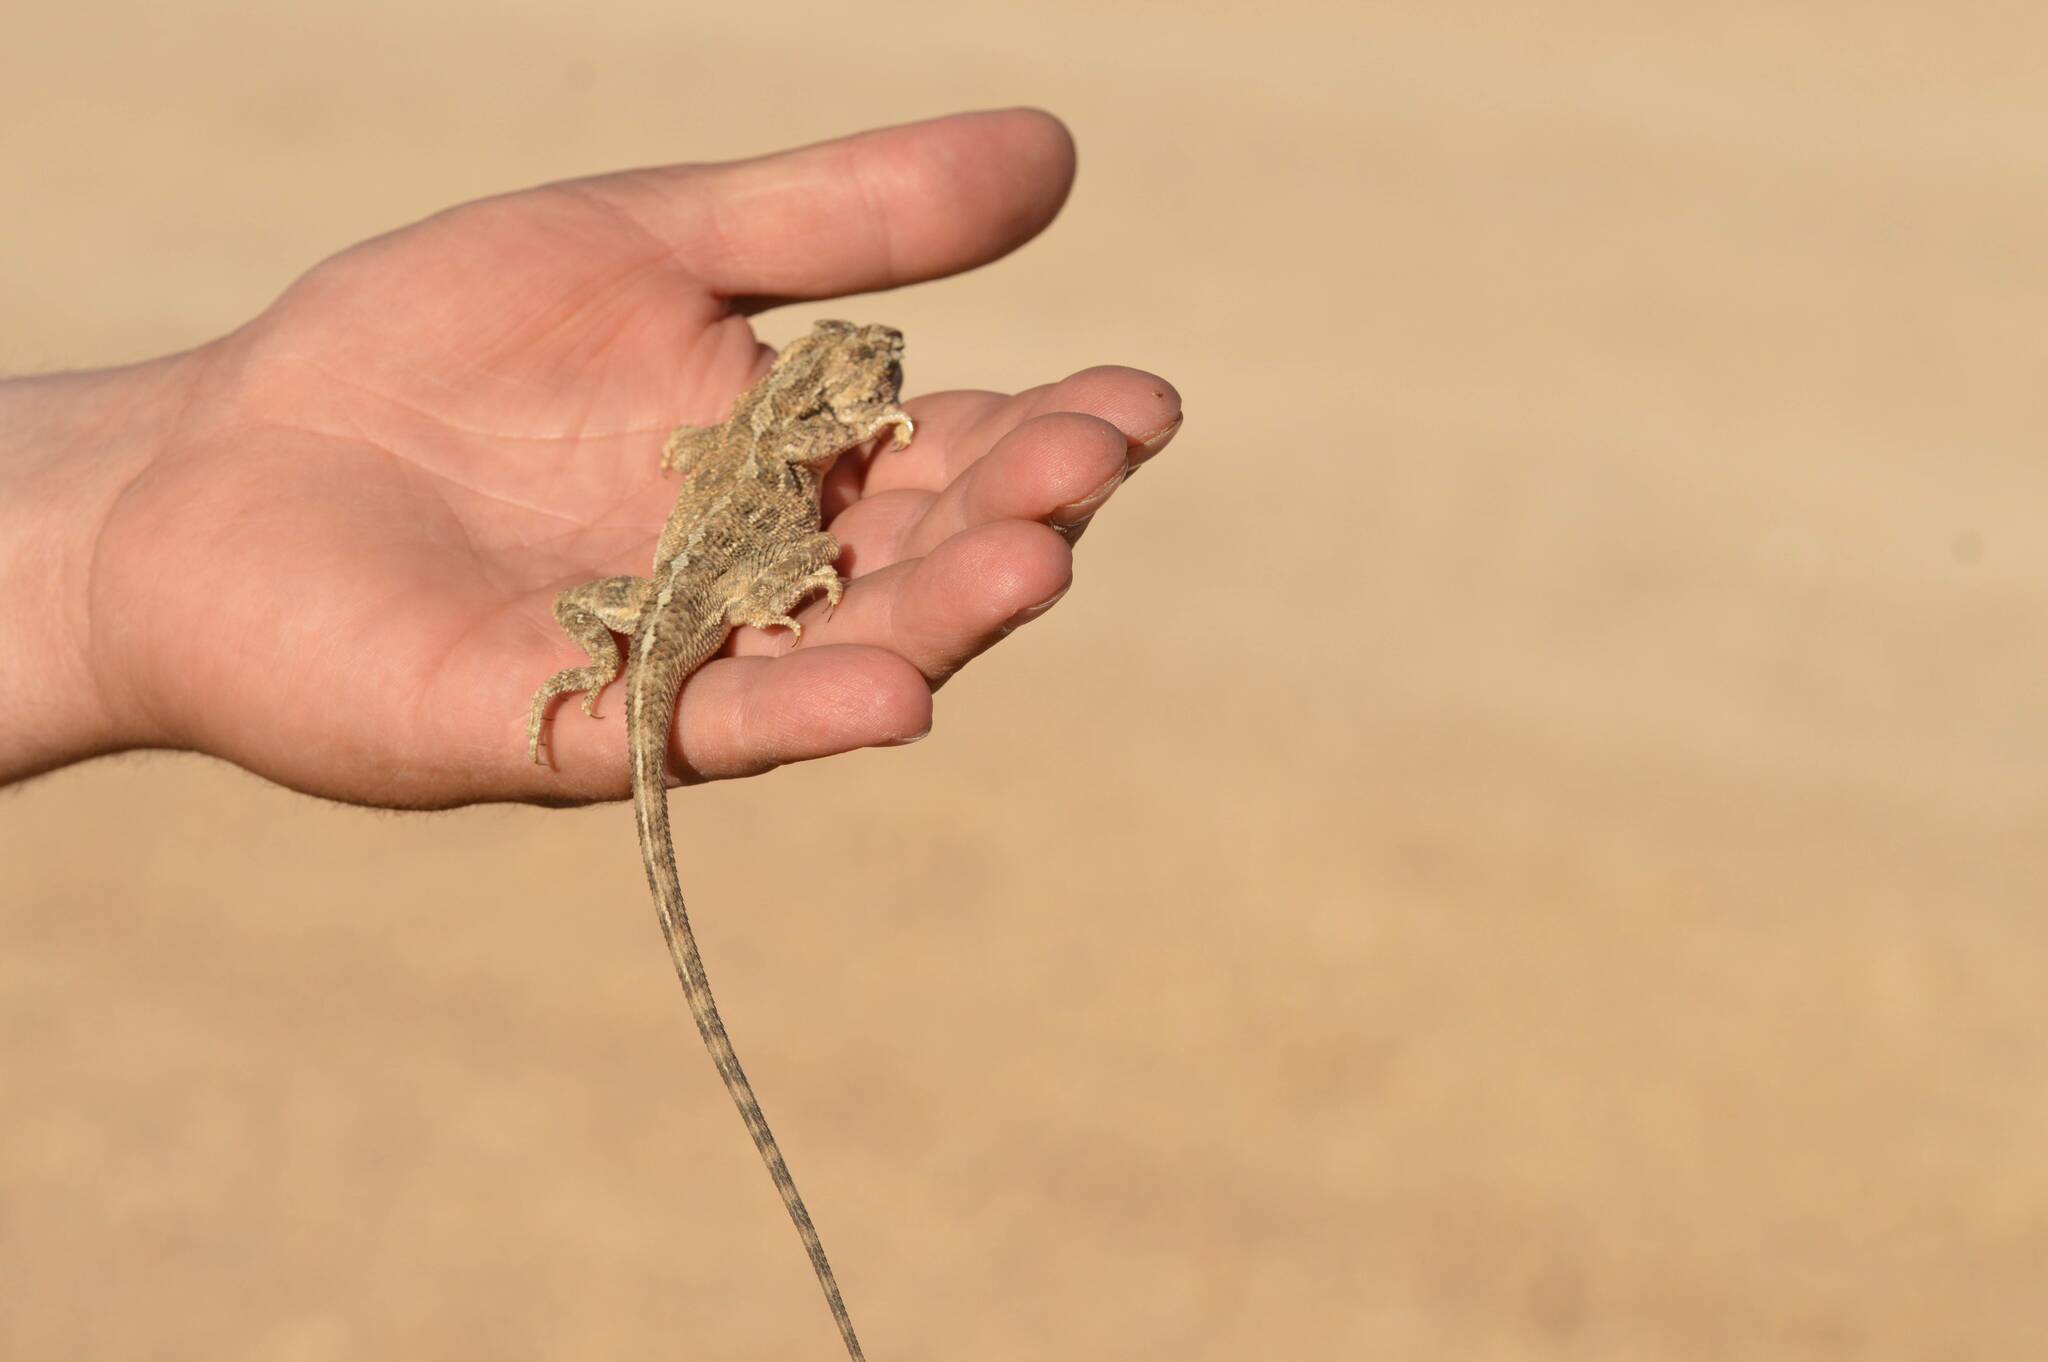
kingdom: Animalia
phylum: Chordata
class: Squamata
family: Agamidae
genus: Trapelus
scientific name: Trapelus mutabilis
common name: Desert agama
